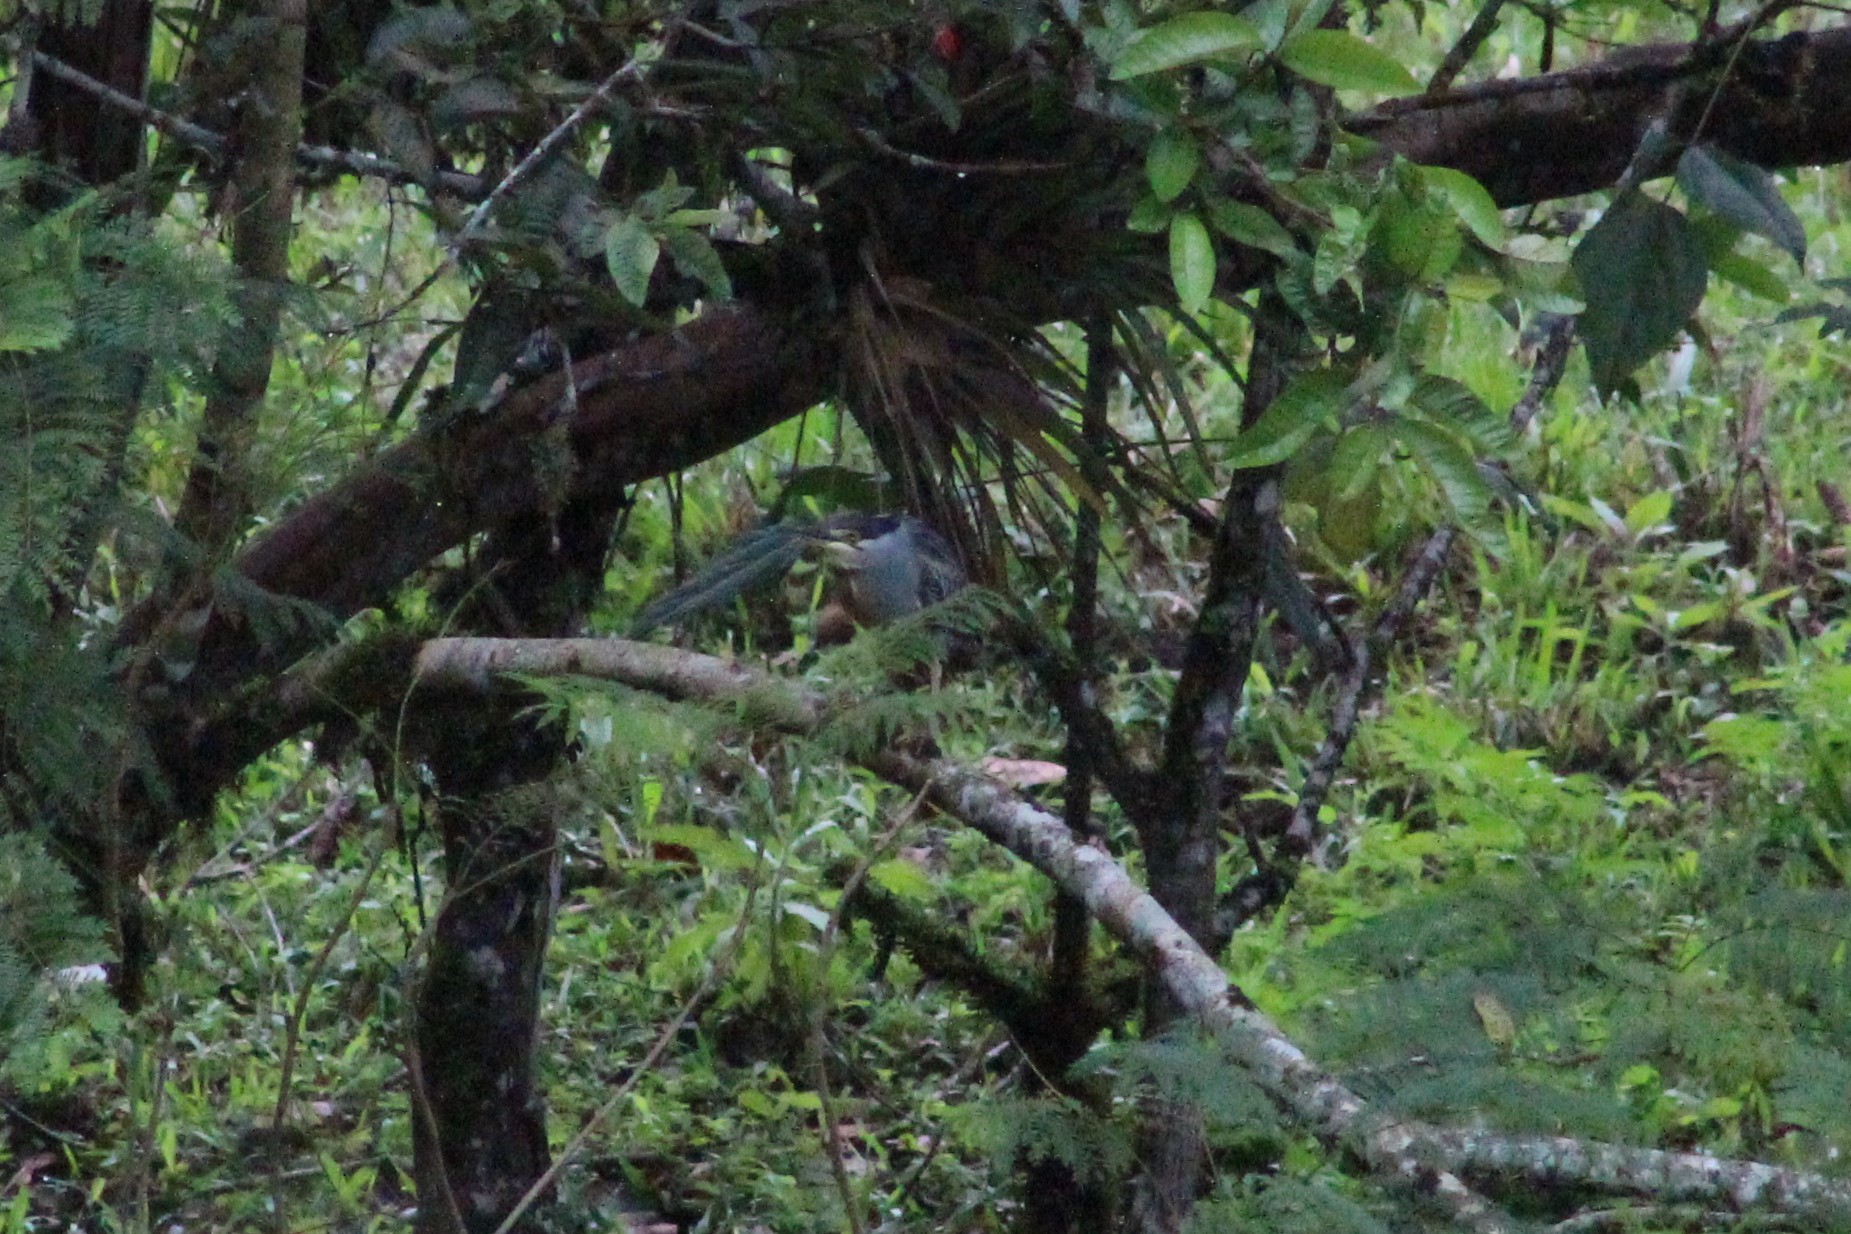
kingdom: Animalia
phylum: Chordata
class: Aves
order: Pelecaniformes
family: Ardeidae
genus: Butorides
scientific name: Butorides striata
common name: Striated heron
